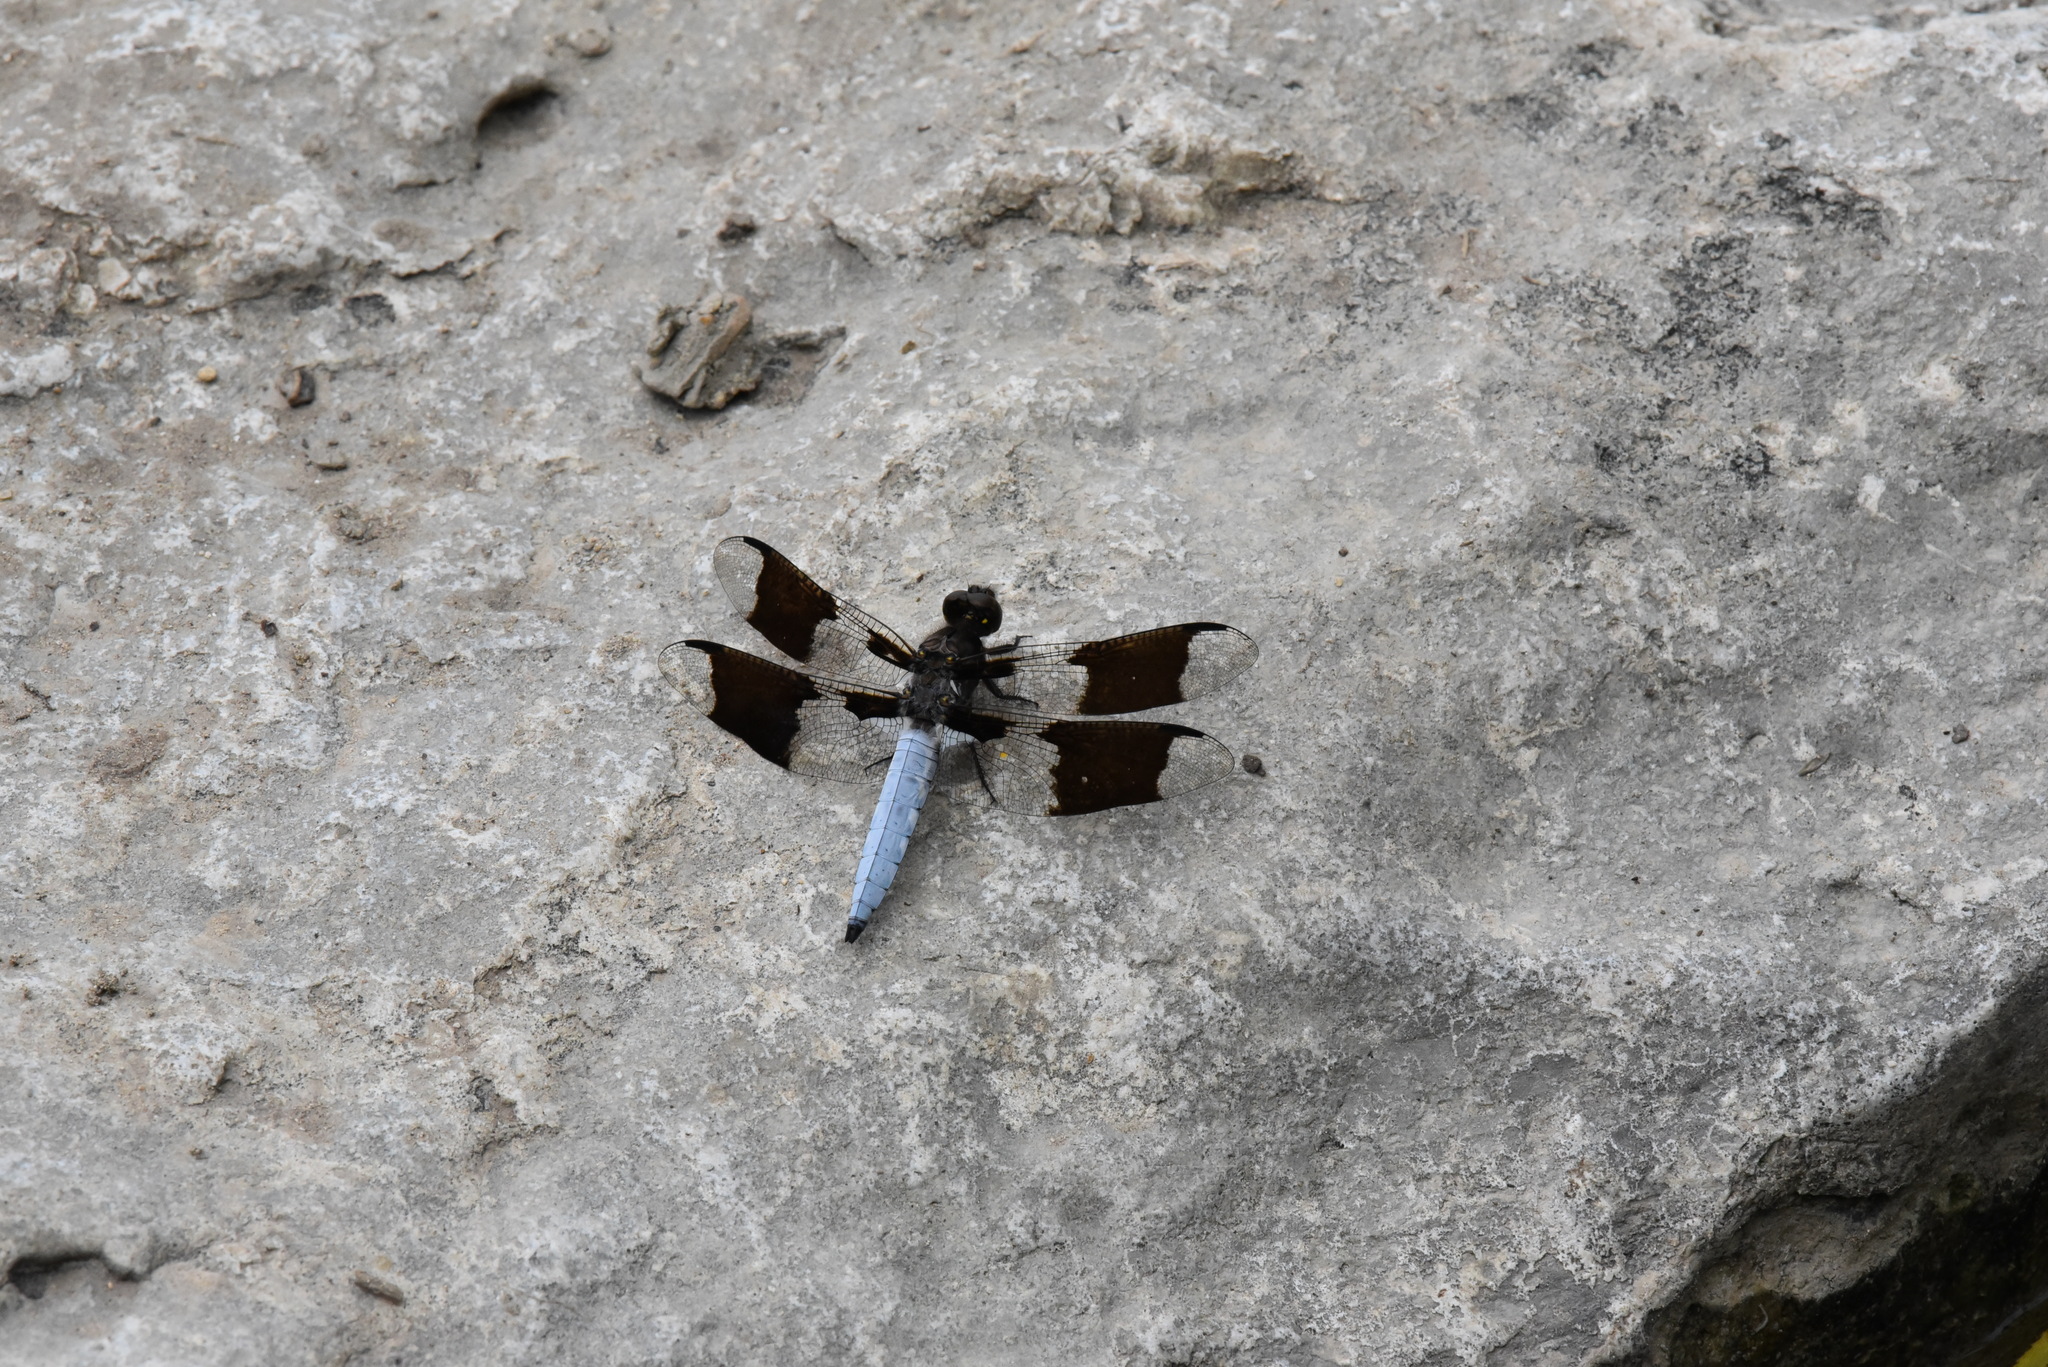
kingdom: Animalia
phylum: Arthropoda
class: Insecta
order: Odonata
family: Libellulidae
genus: Plathemis
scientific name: Plathemis lydia
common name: Common whitetail
